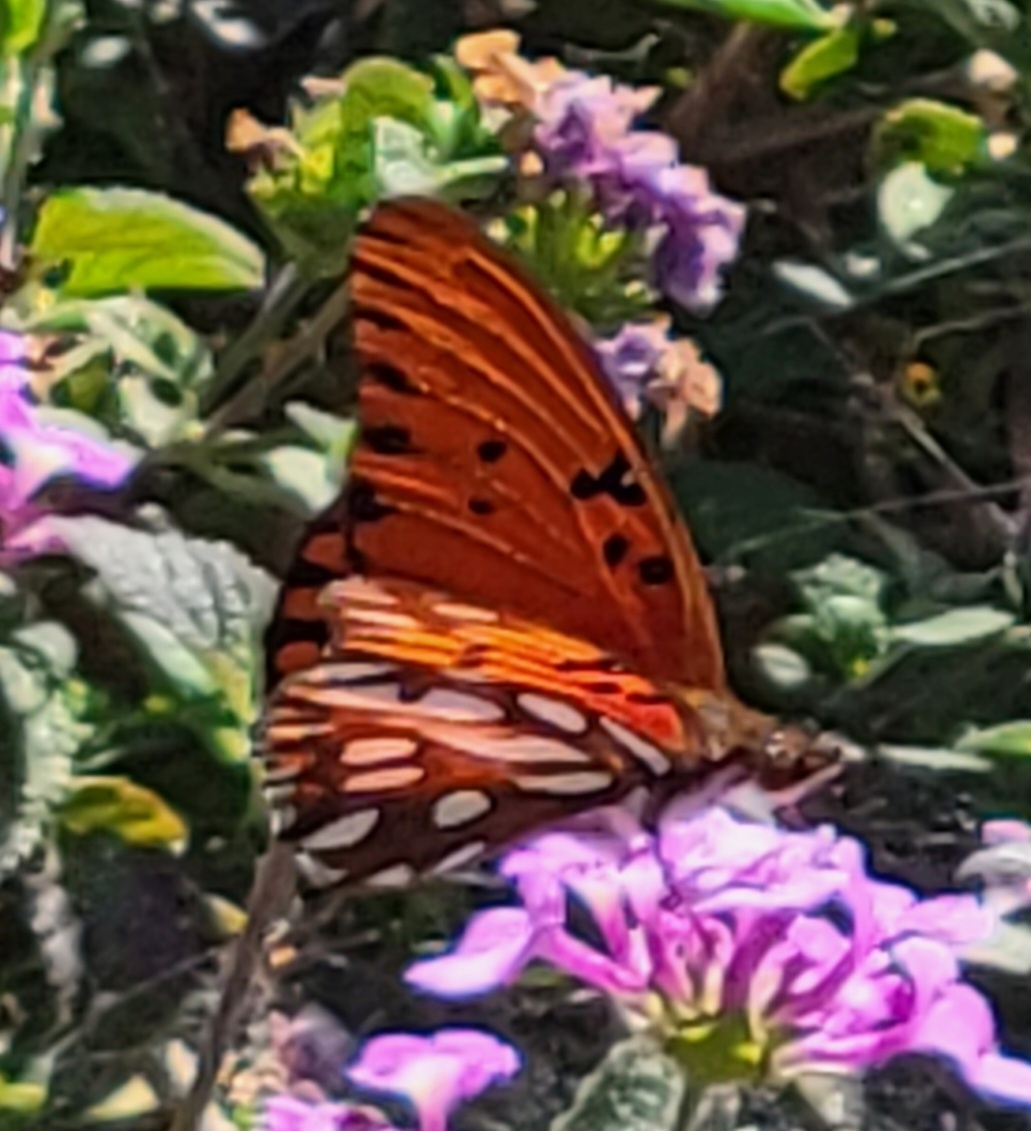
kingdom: Animalia
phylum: Arthropoda
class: Insecta
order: Lepidoptera
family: Nymphalidae
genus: Dione
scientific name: Dione vanillae
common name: Gulf fritillary
